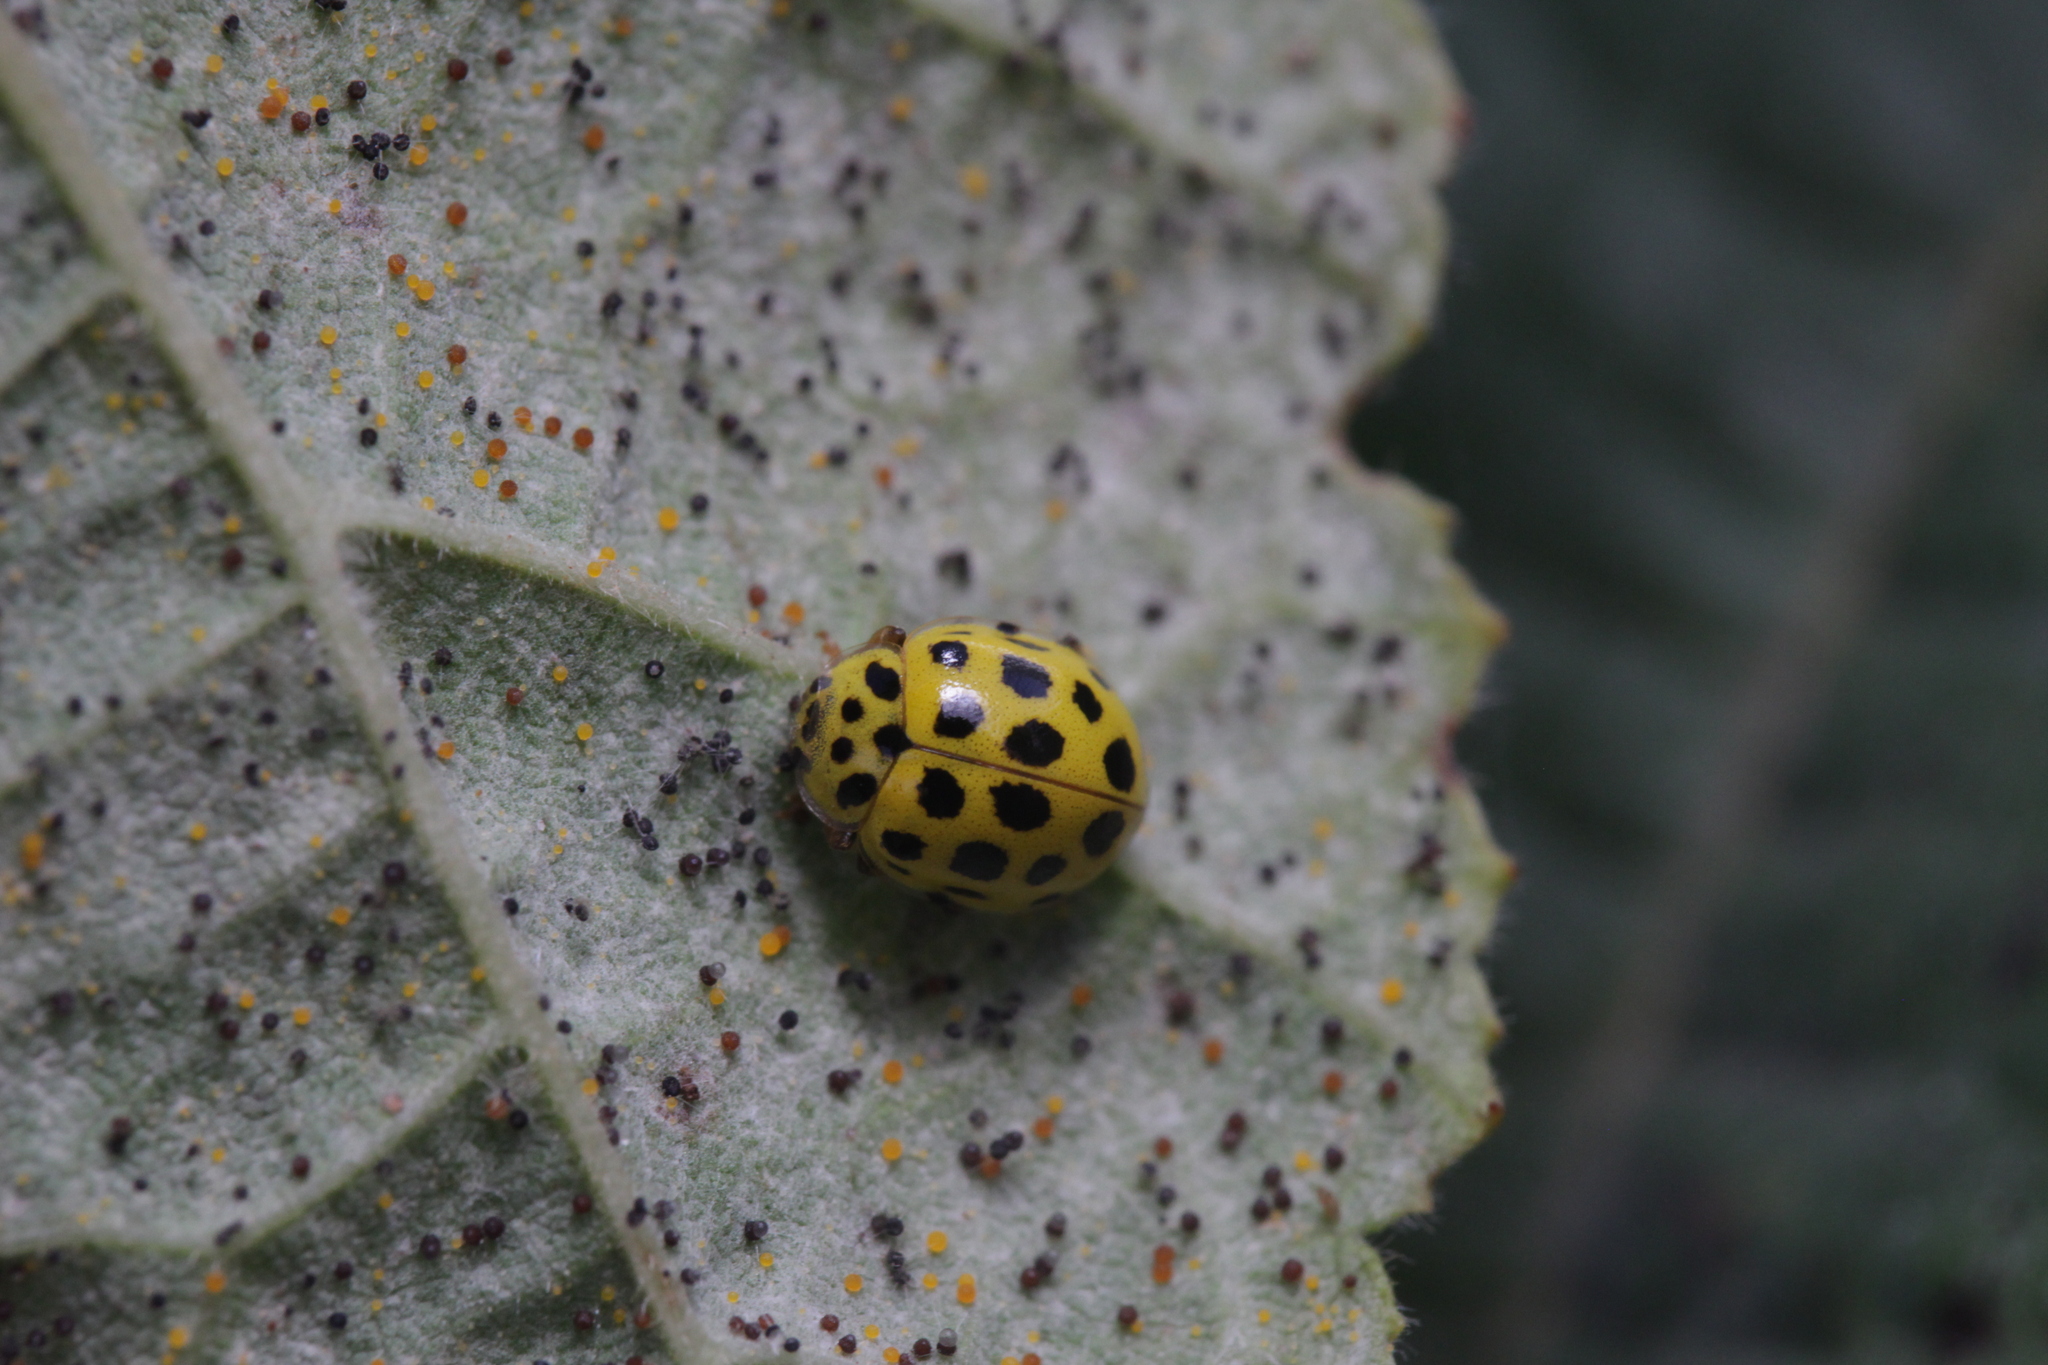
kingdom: Animalia
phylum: Arthropoda
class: Insecta
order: Coleoptera
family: Coccinellidae
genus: Psyllobora
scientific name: Psyllobora vigintiduopunctata
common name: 22-spot ladybird
